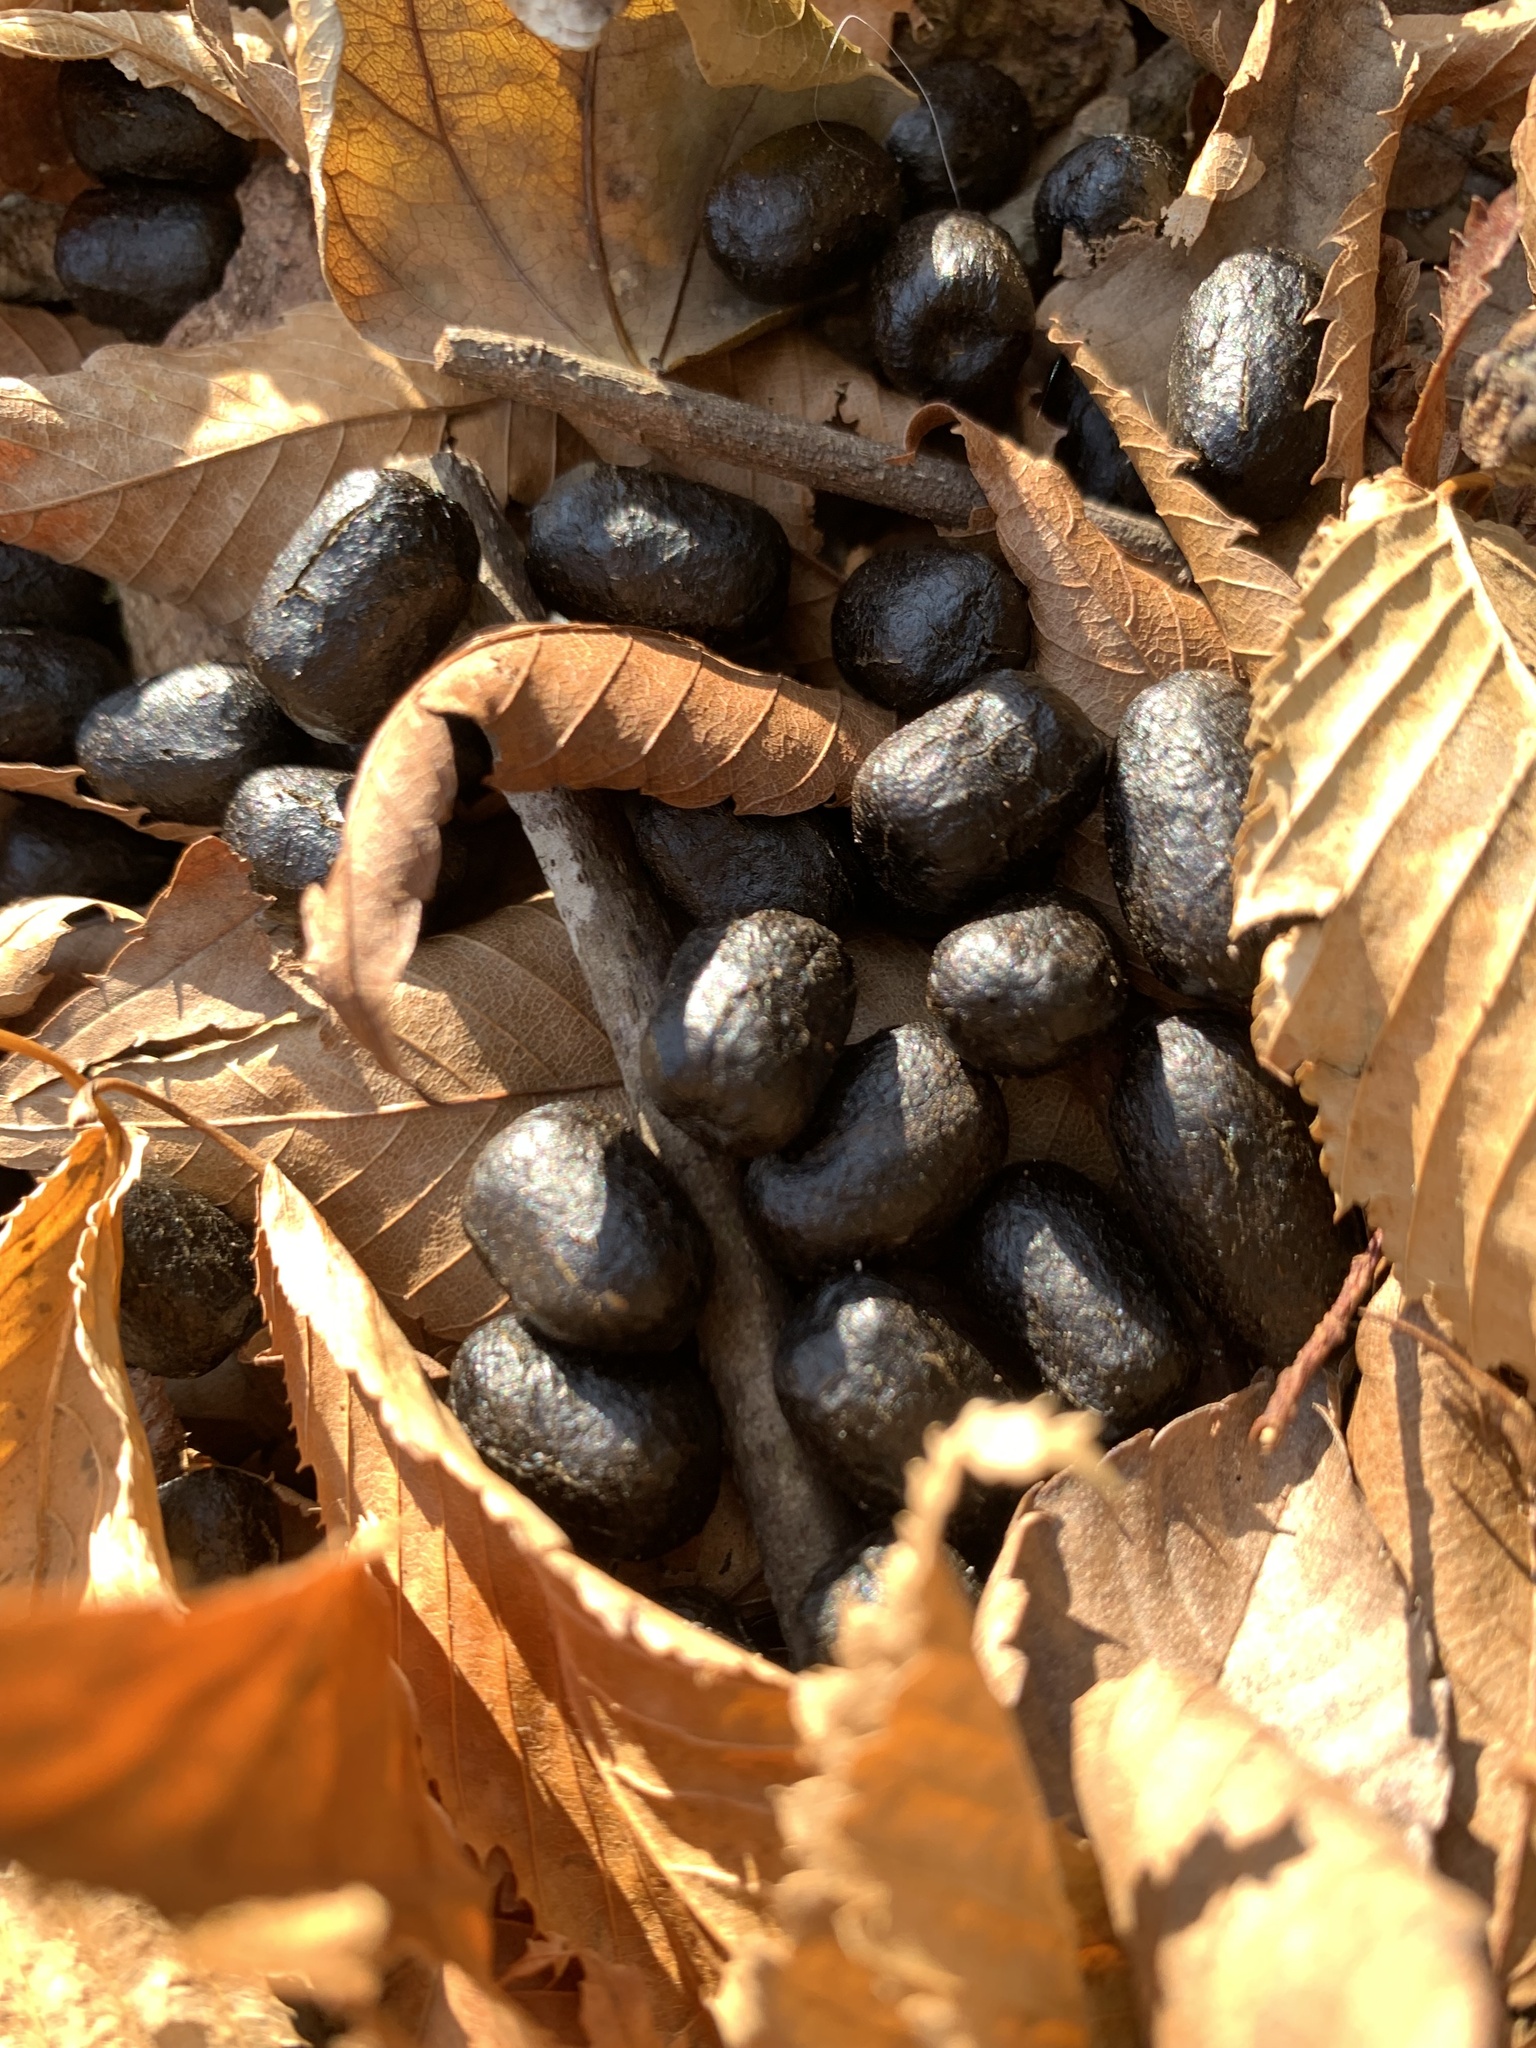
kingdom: Animalia
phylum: Chordata
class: Mammalia
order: Artiodactyla
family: Cervidae
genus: Cervus
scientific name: Cervus nippon
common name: Sika deer
